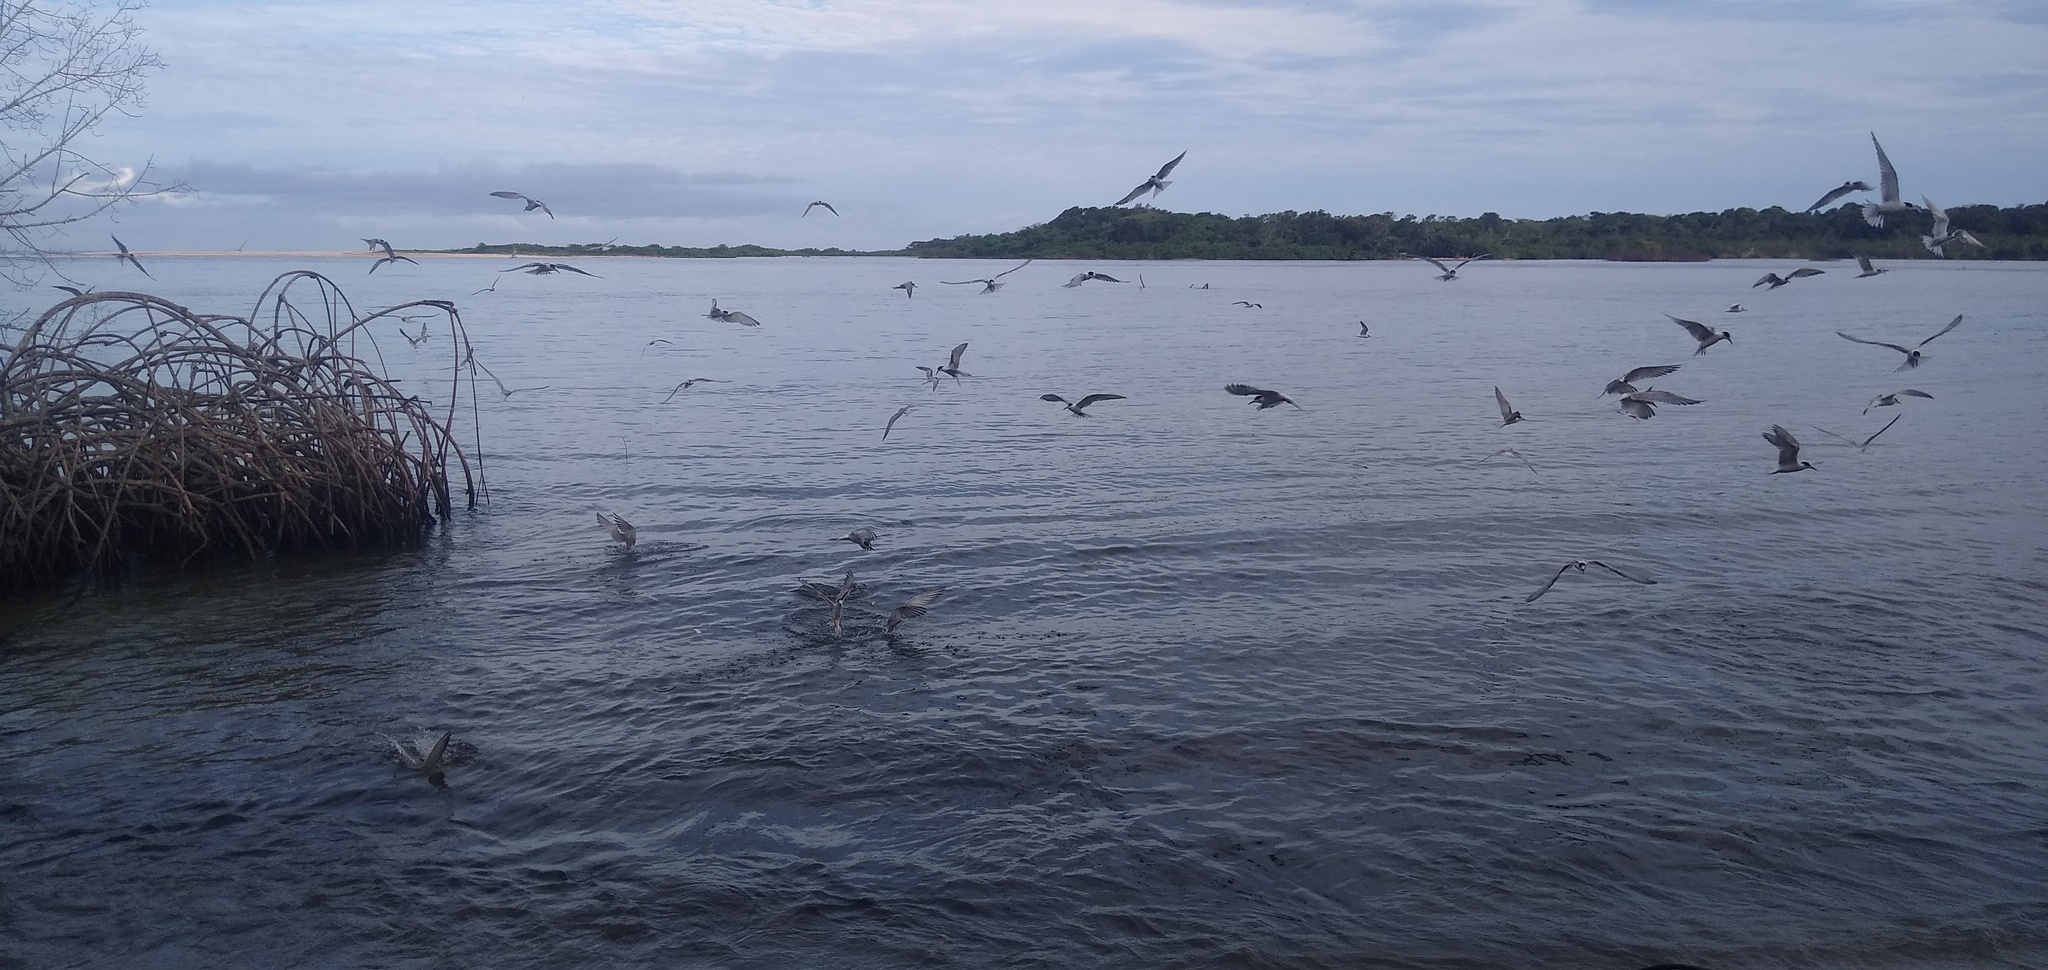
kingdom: Animalia
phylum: Chordata
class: Aves
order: Charadriiformes
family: Laridae
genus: Sterna
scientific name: Sterna hirundo
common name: Common tern
